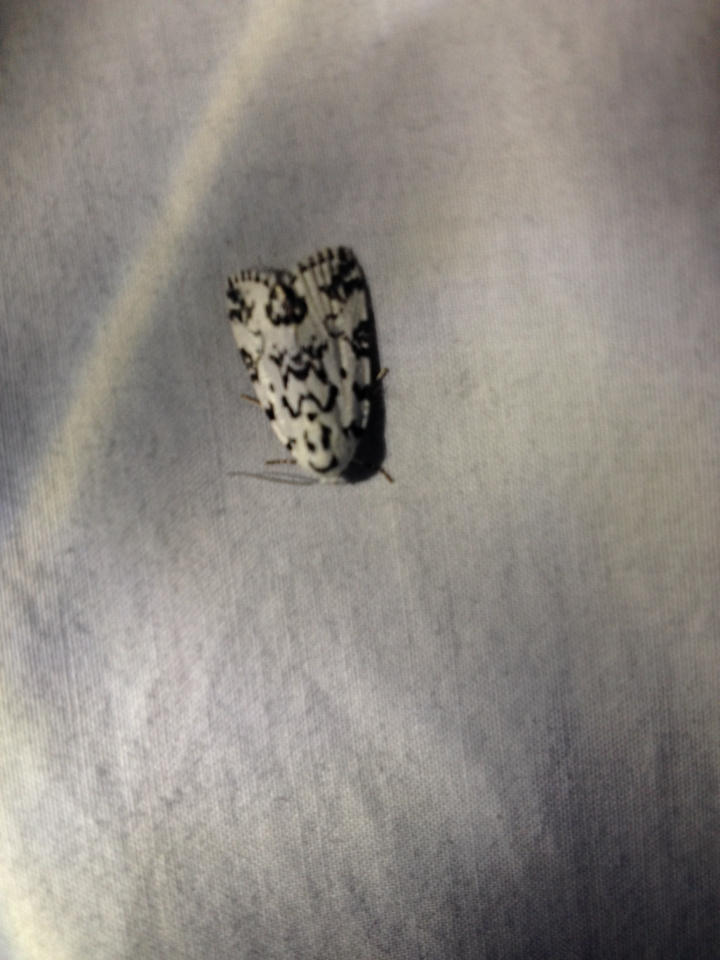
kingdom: Animalia
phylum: Arthropoda
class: Insecta
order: Lepidoptera
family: Noctuidae
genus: Polygrammate
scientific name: Polygrammate hebraeicum
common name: Hebrew moth
